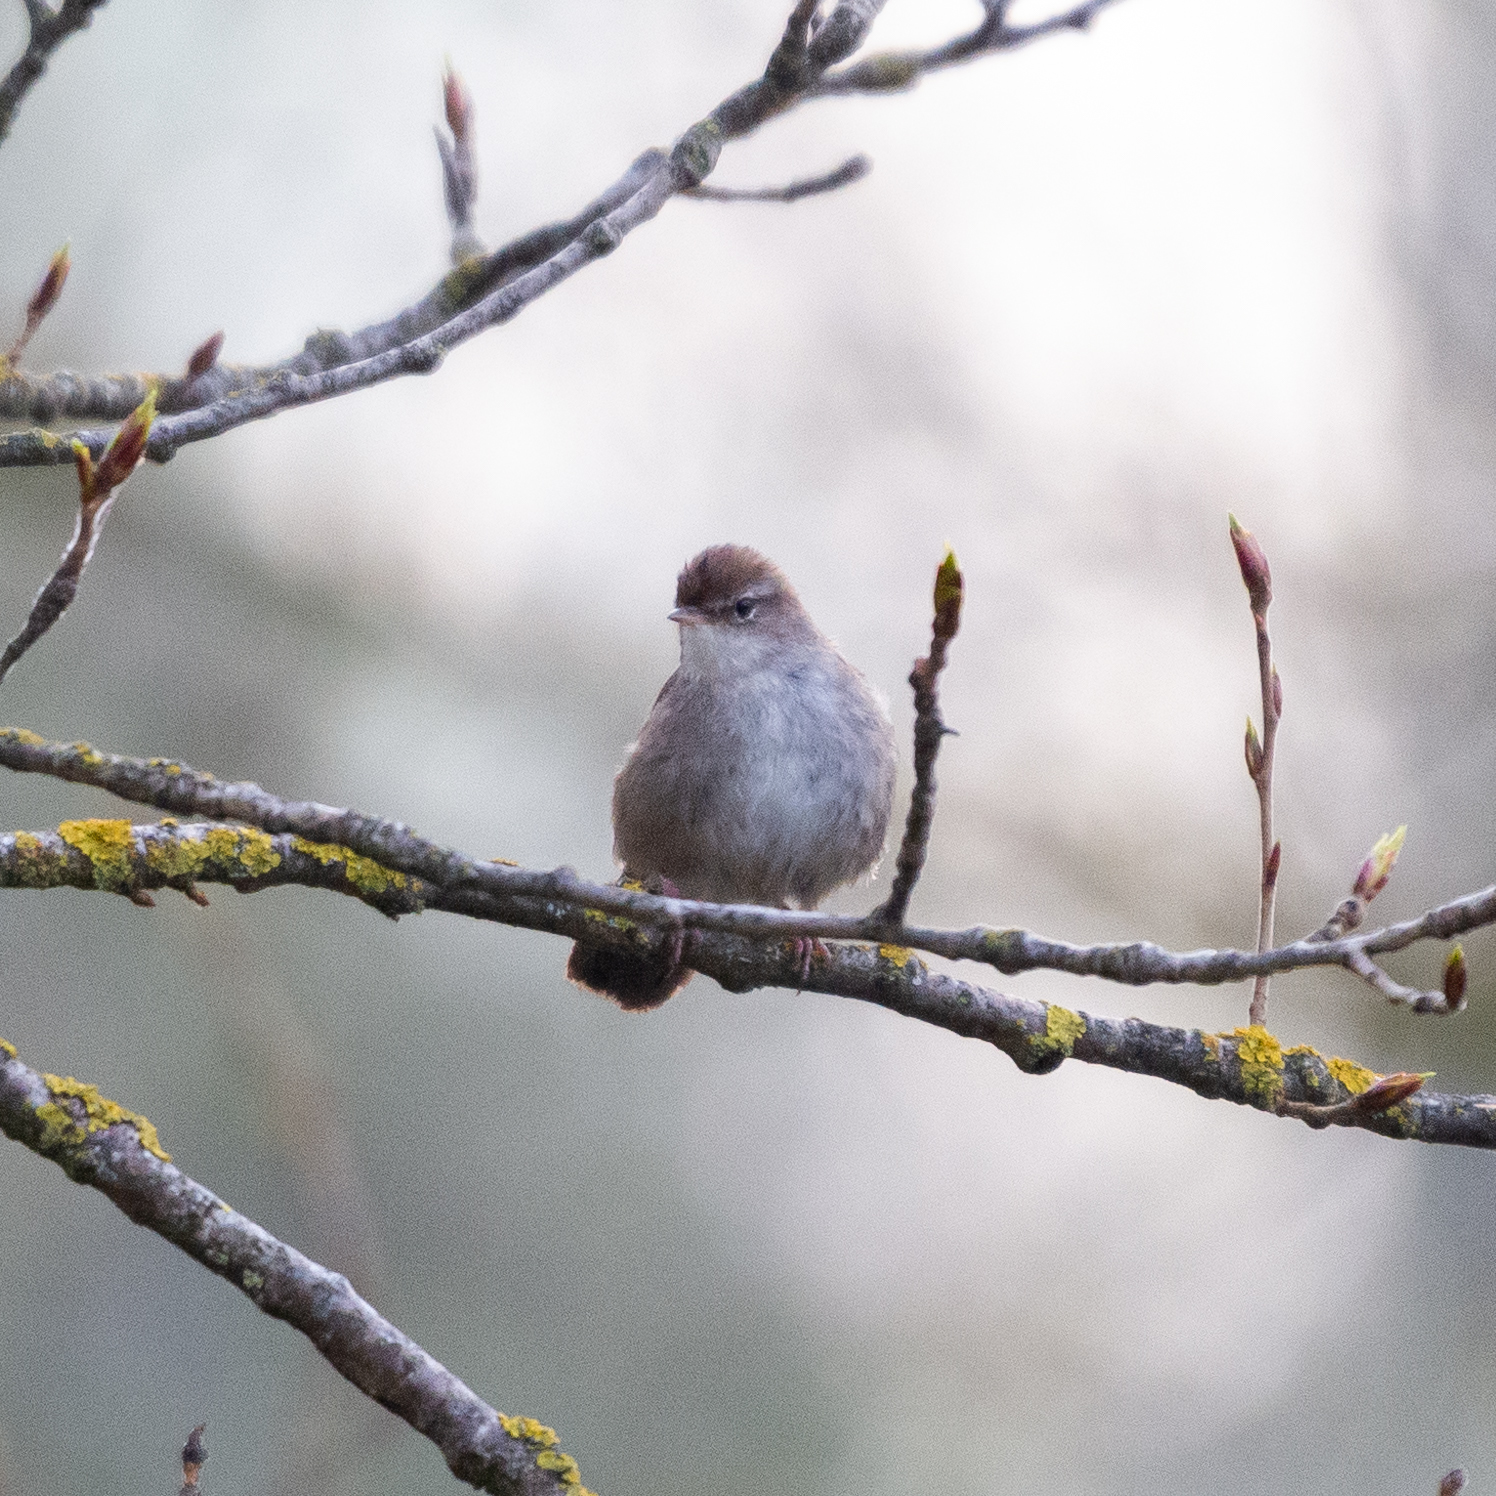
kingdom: Animalia
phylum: Chordata
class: Aves
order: Passeriformes
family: Cettiidae
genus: Cettia
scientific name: Cettia cetti
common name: Cetti's warbler
